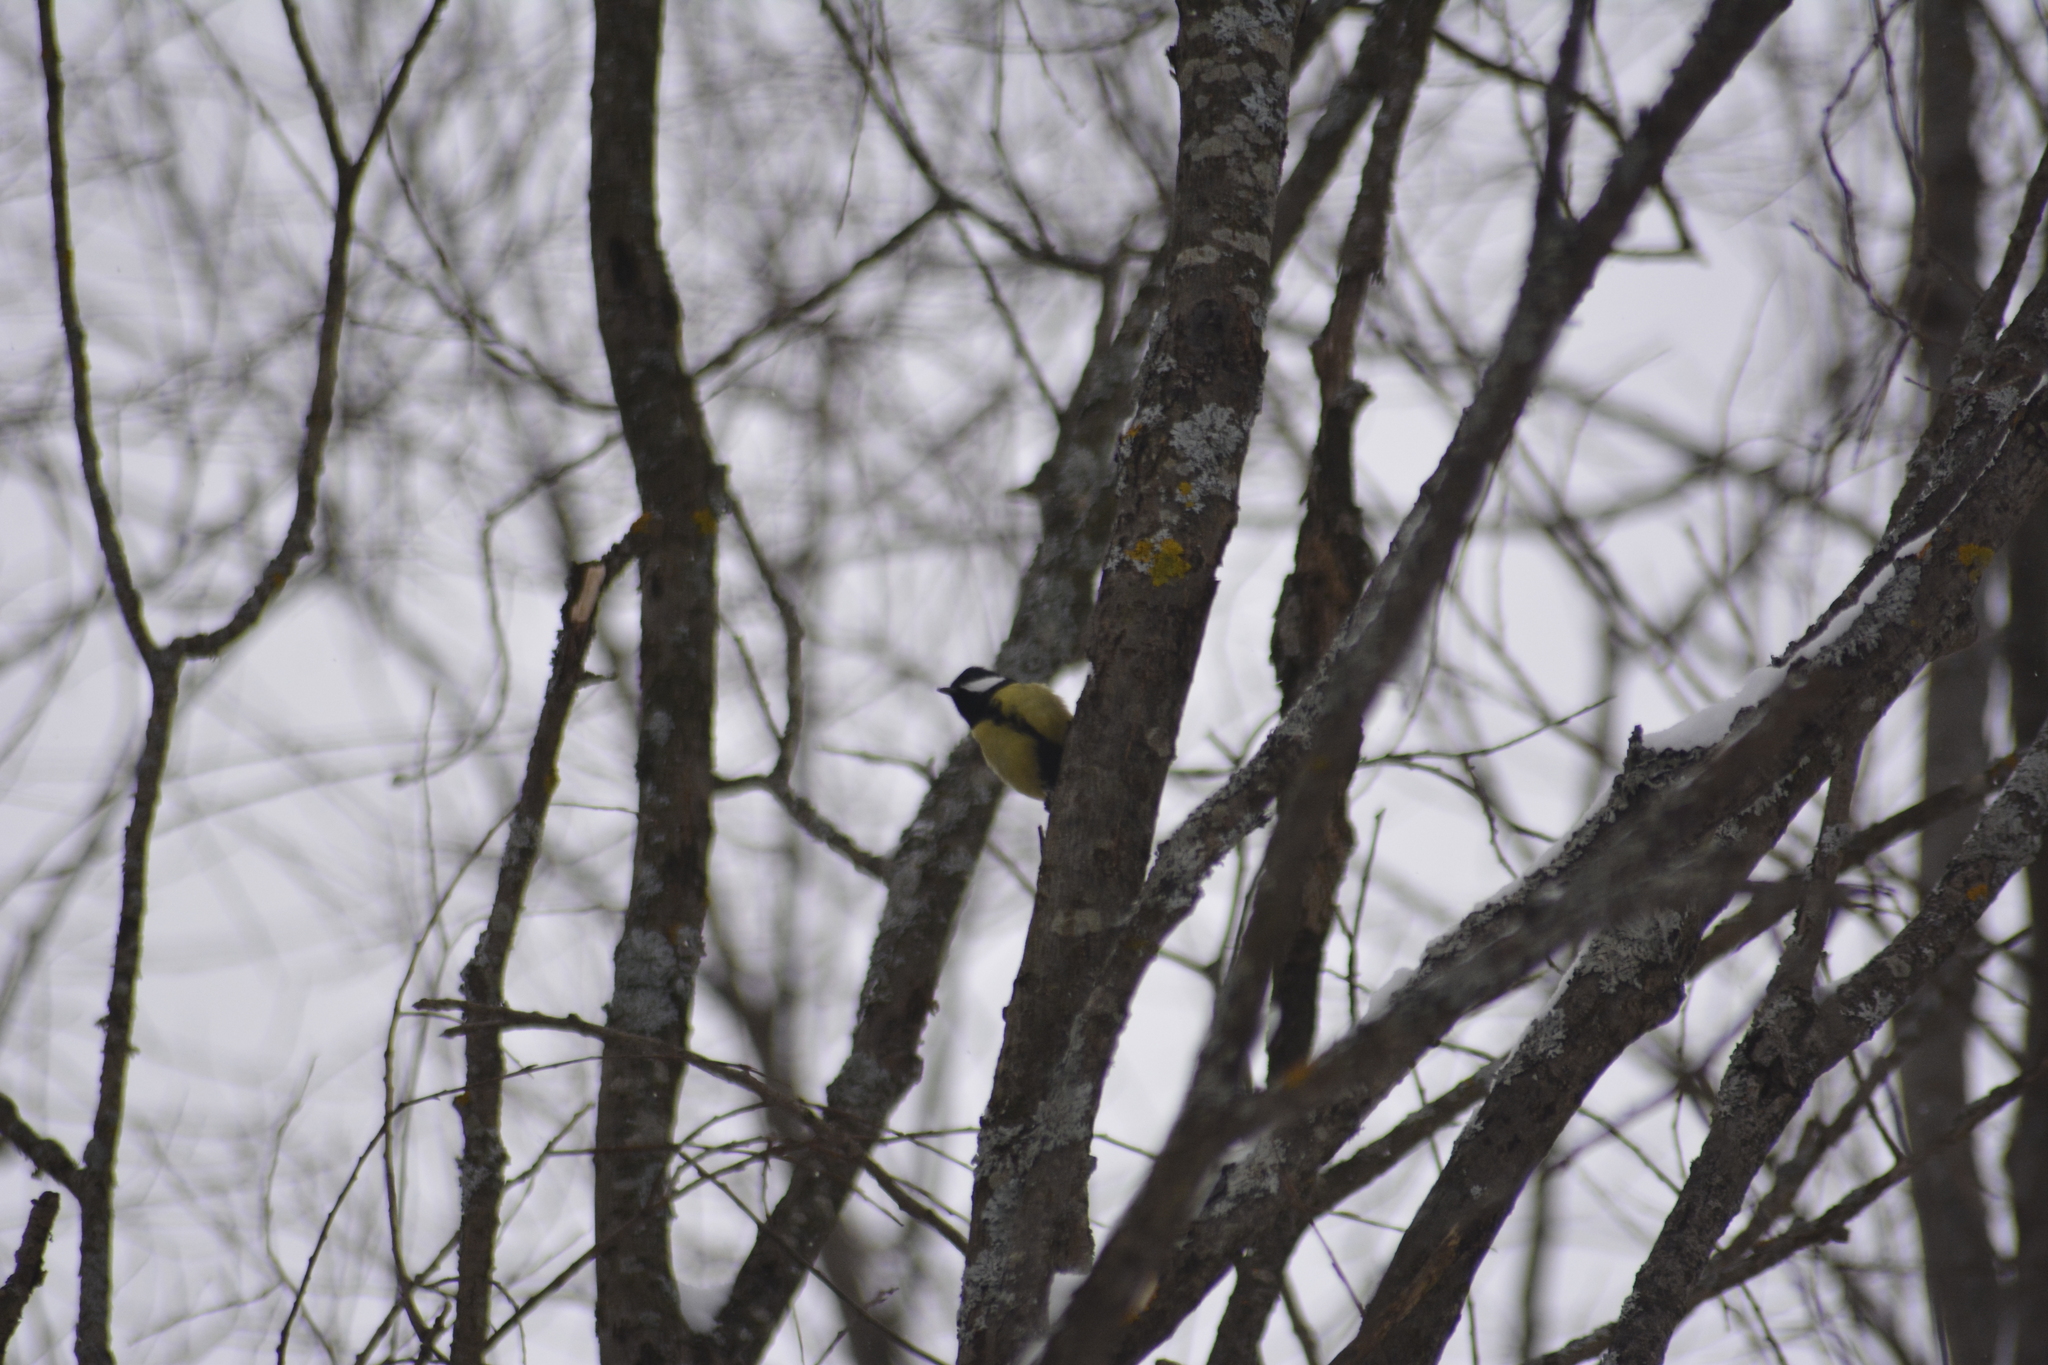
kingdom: Animalia
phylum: Chordata
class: Aves
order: Passeriformes
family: Paridae
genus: Parus
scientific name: Parus major
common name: Great tit
